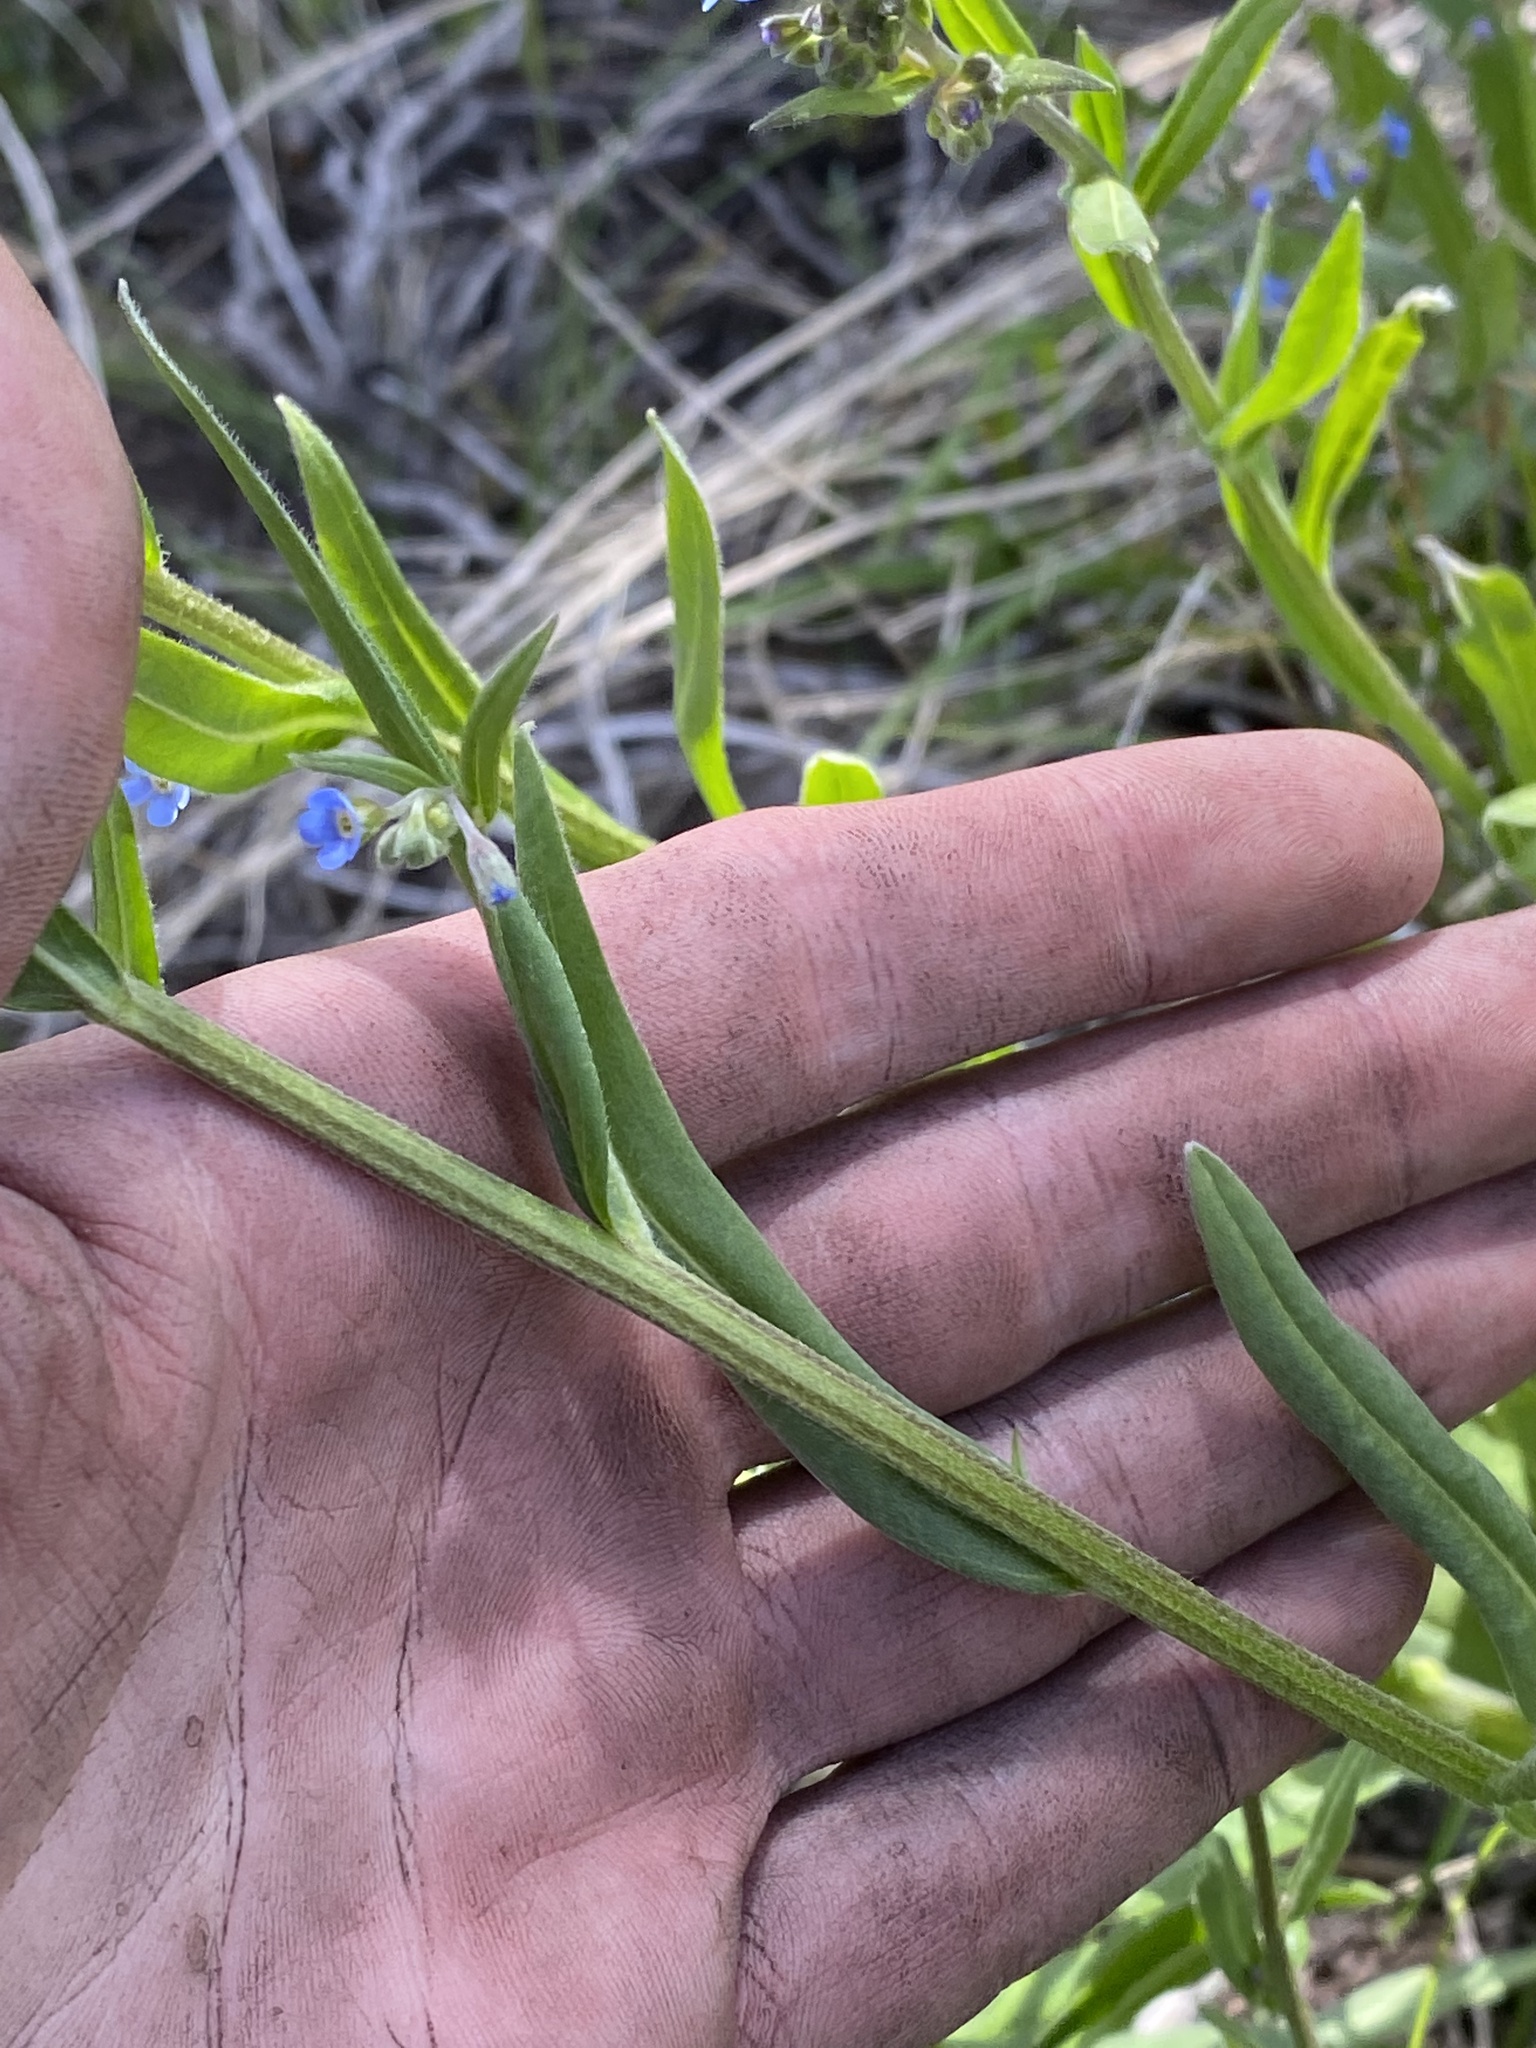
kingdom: Plantae
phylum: Tracheophyta
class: Magnoliopsida
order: Boraginales
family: Boraginaceae
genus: Hackelia
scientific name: Hackelia micrantha
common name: Meadow stickseed
